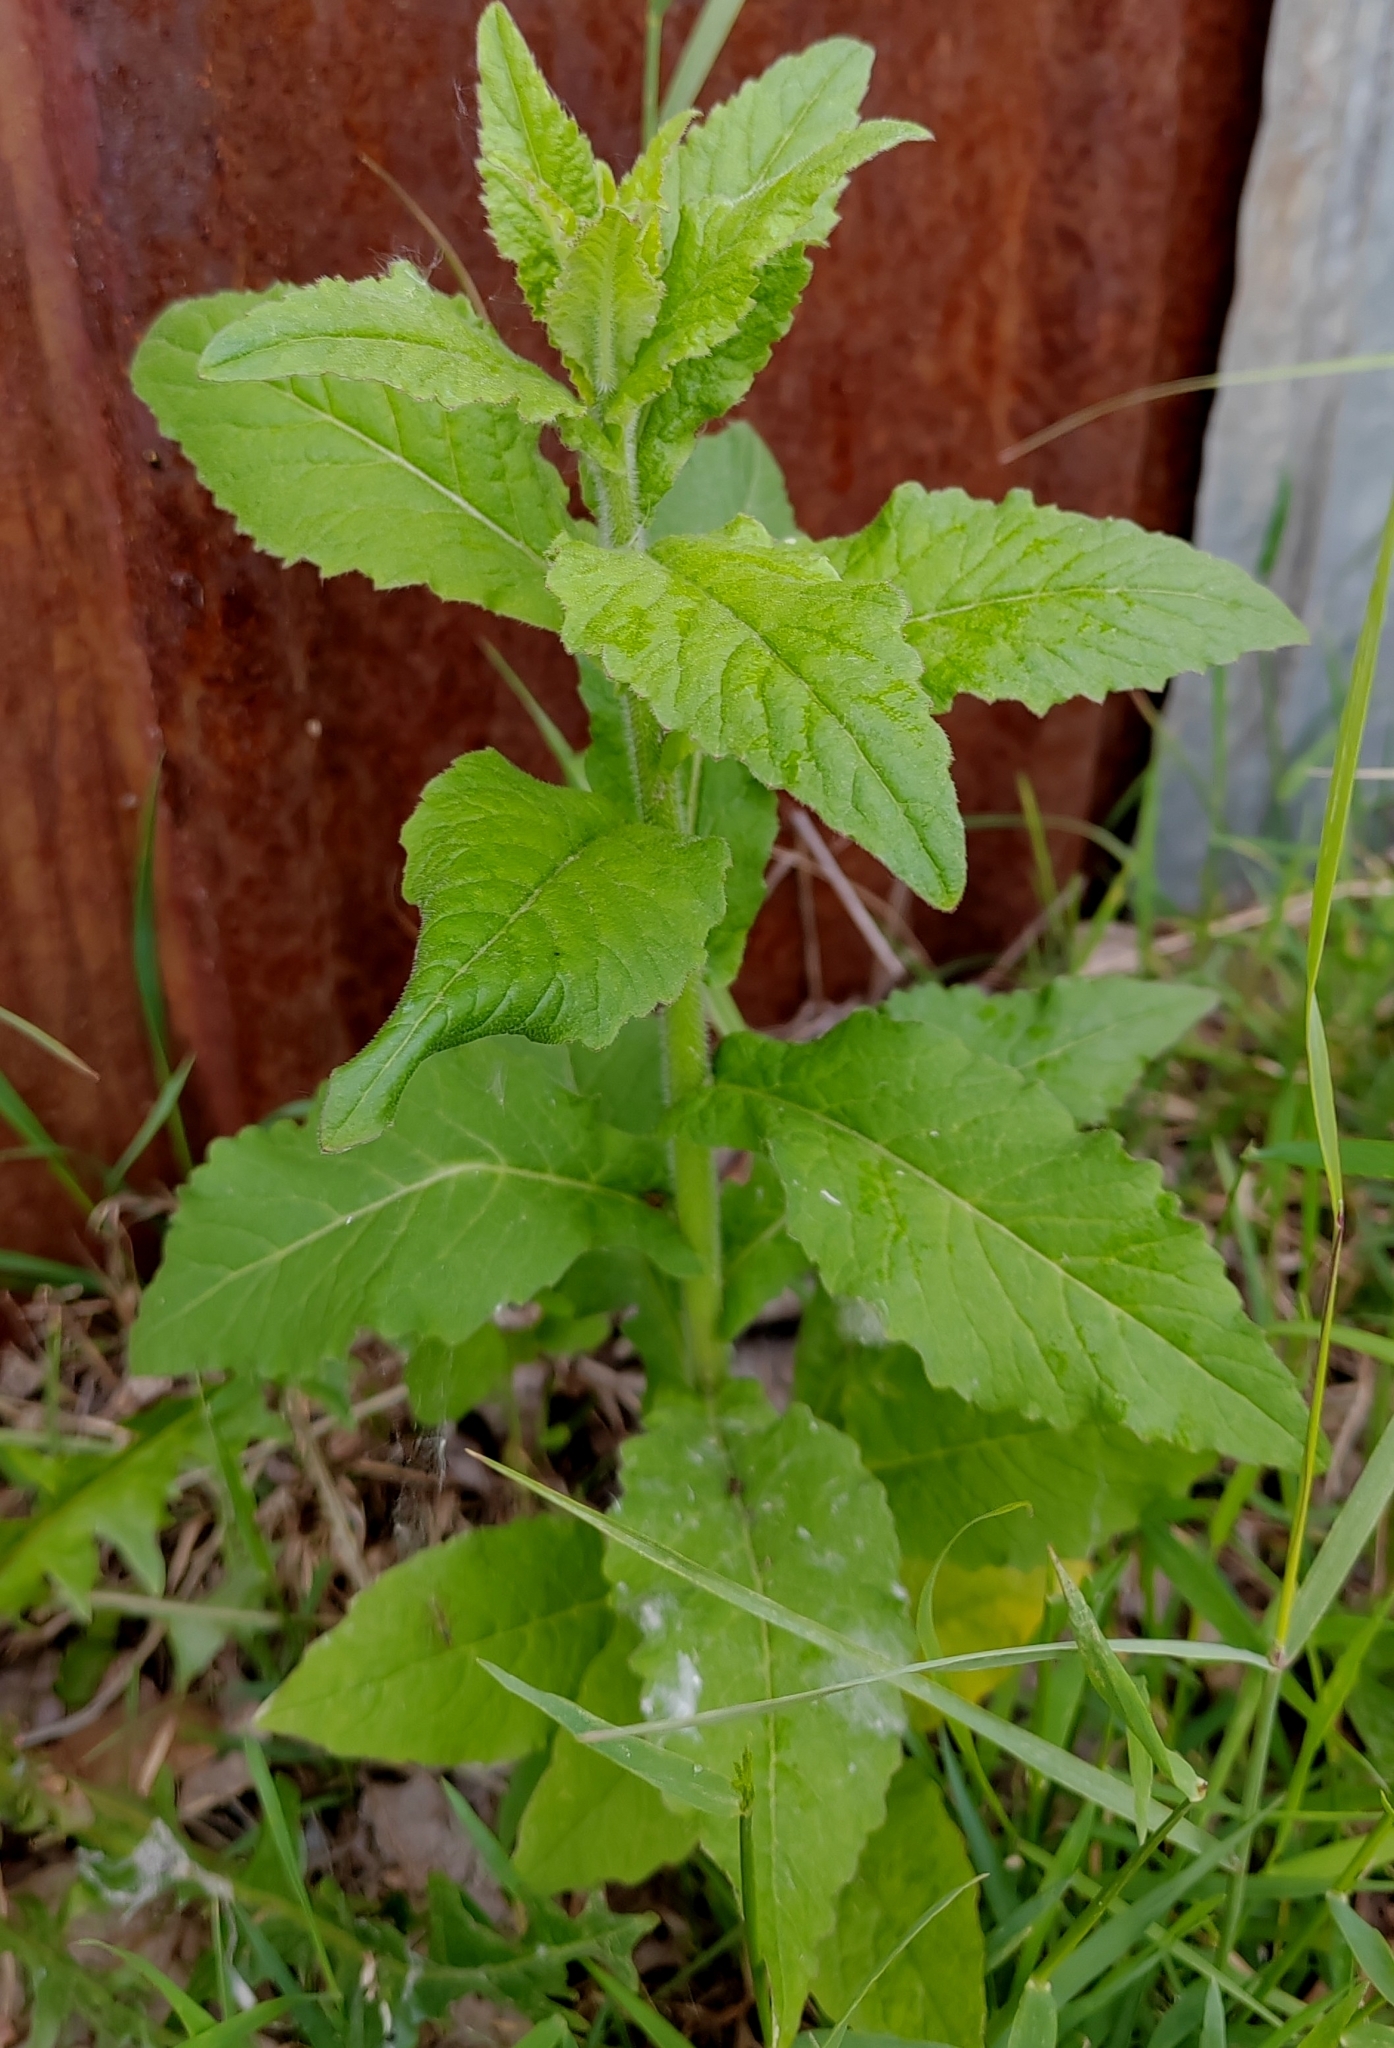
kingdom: Plantae
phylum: Tracheophyta
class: Magnoliopsida
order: Brassicales
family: Brassicaceae
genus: Catolobus
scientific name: Catolobus pendulus
